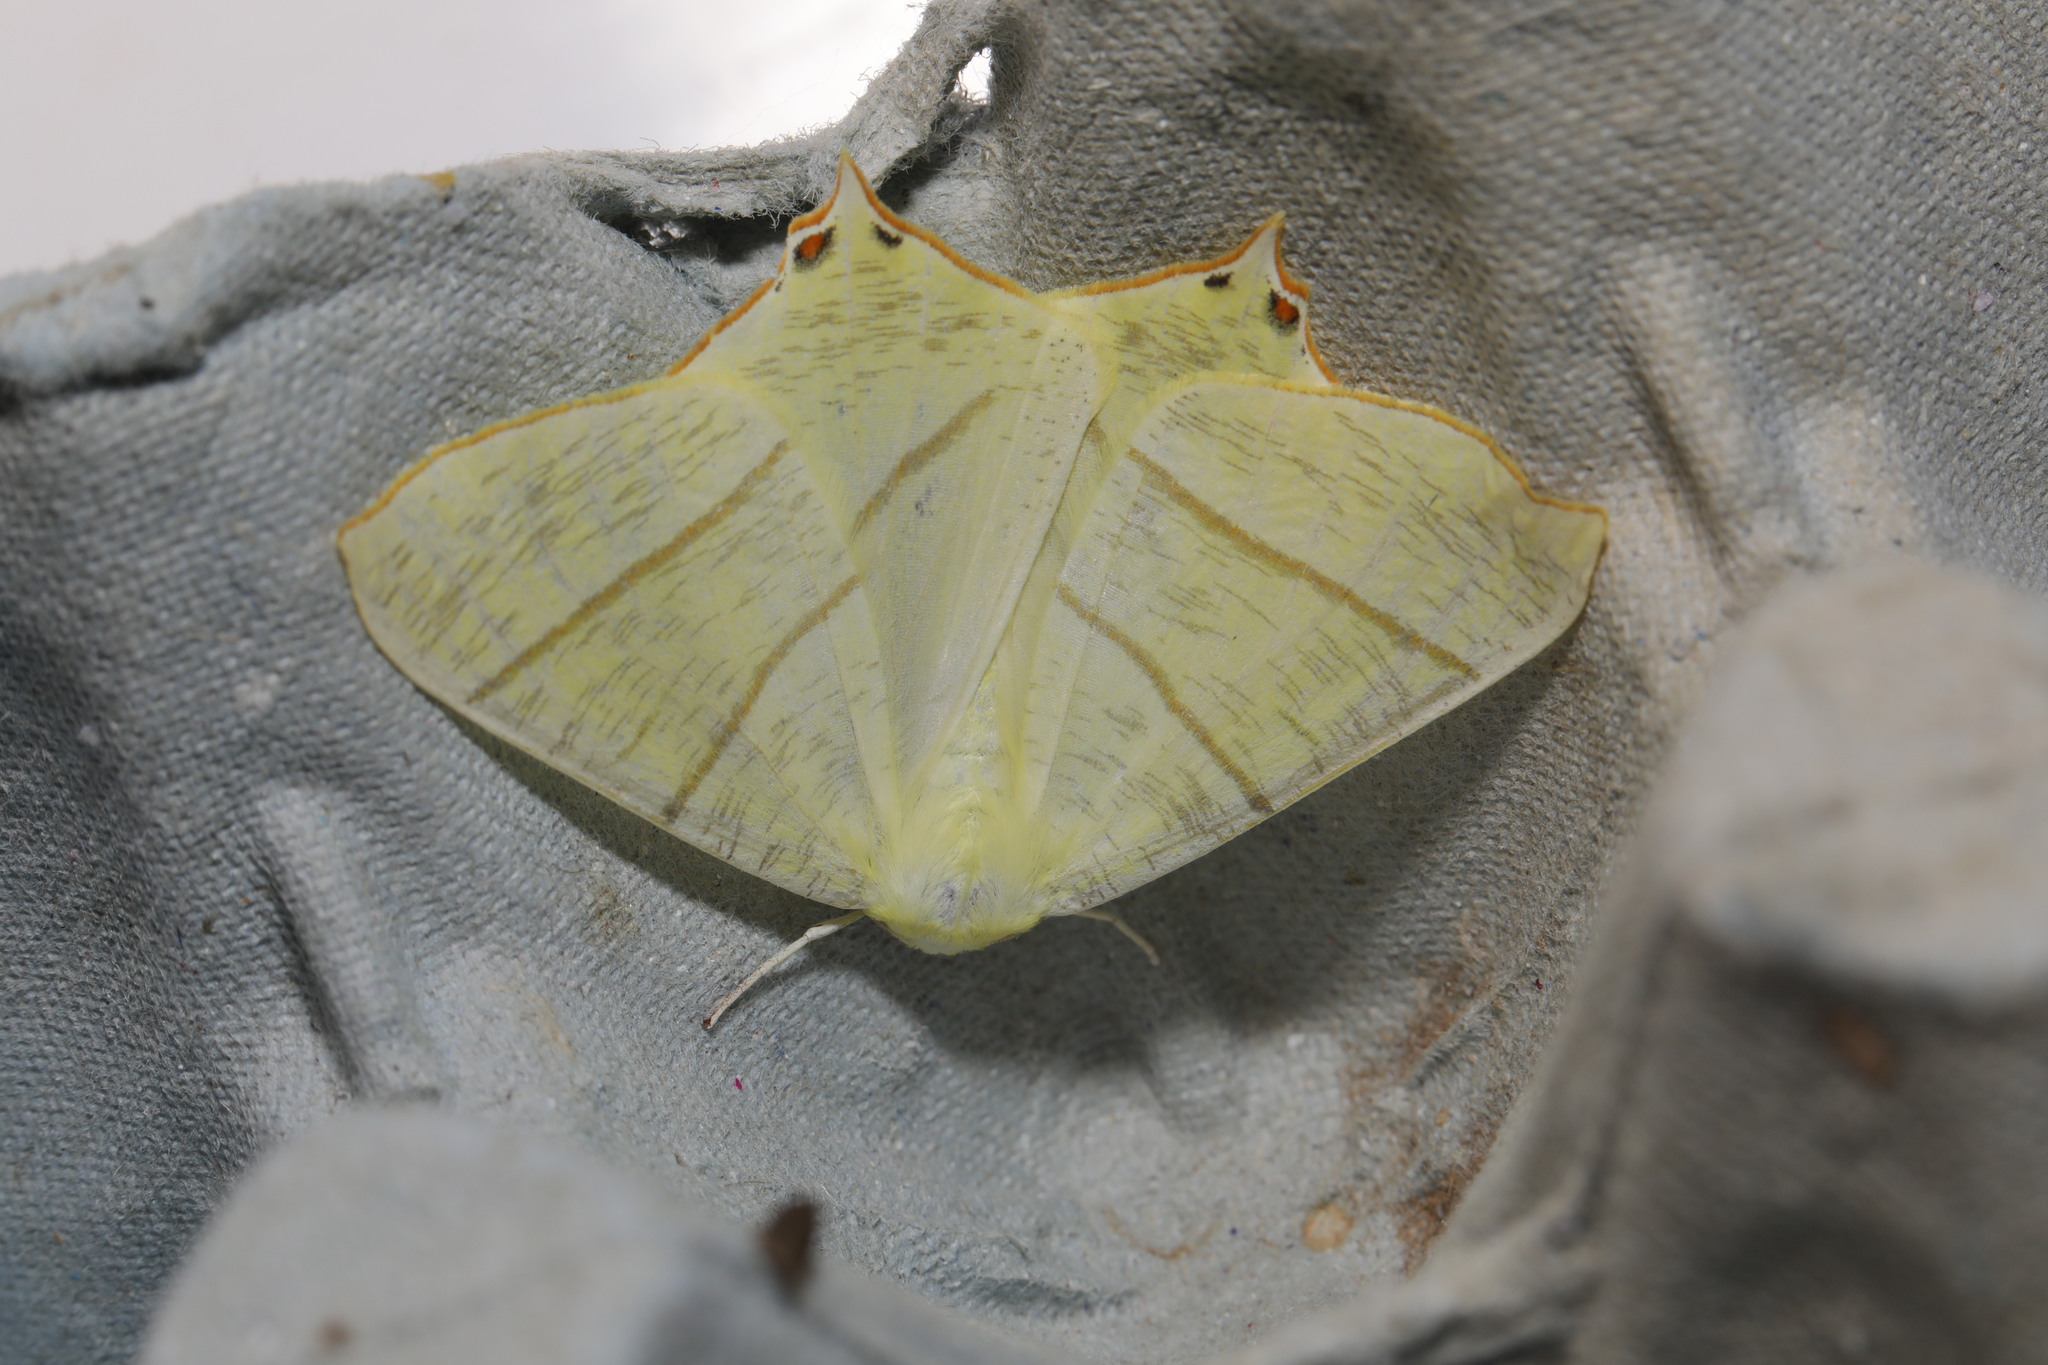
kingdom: Animalia
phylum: Arthropoda
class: Insecta
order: Lepidoptera
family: Geometridae
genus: Ourapteryx
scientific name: Ourapteryx sambucaria
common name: Swallow-tailed moth
